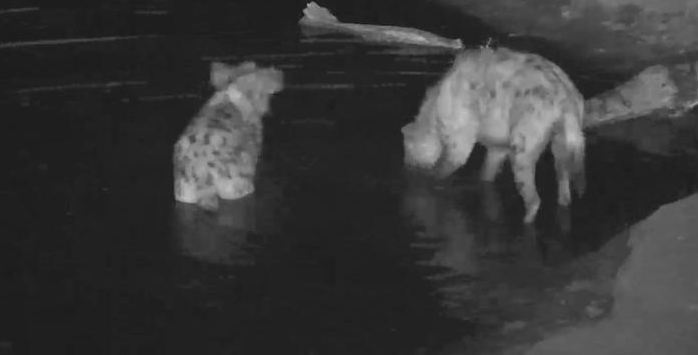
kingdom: Animalia
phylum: Chordata
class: Mammalia
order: Carnivora
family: Hyaenidae
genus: Crocuta
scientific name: Crocuta crocuta
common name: Spotted hyaena
